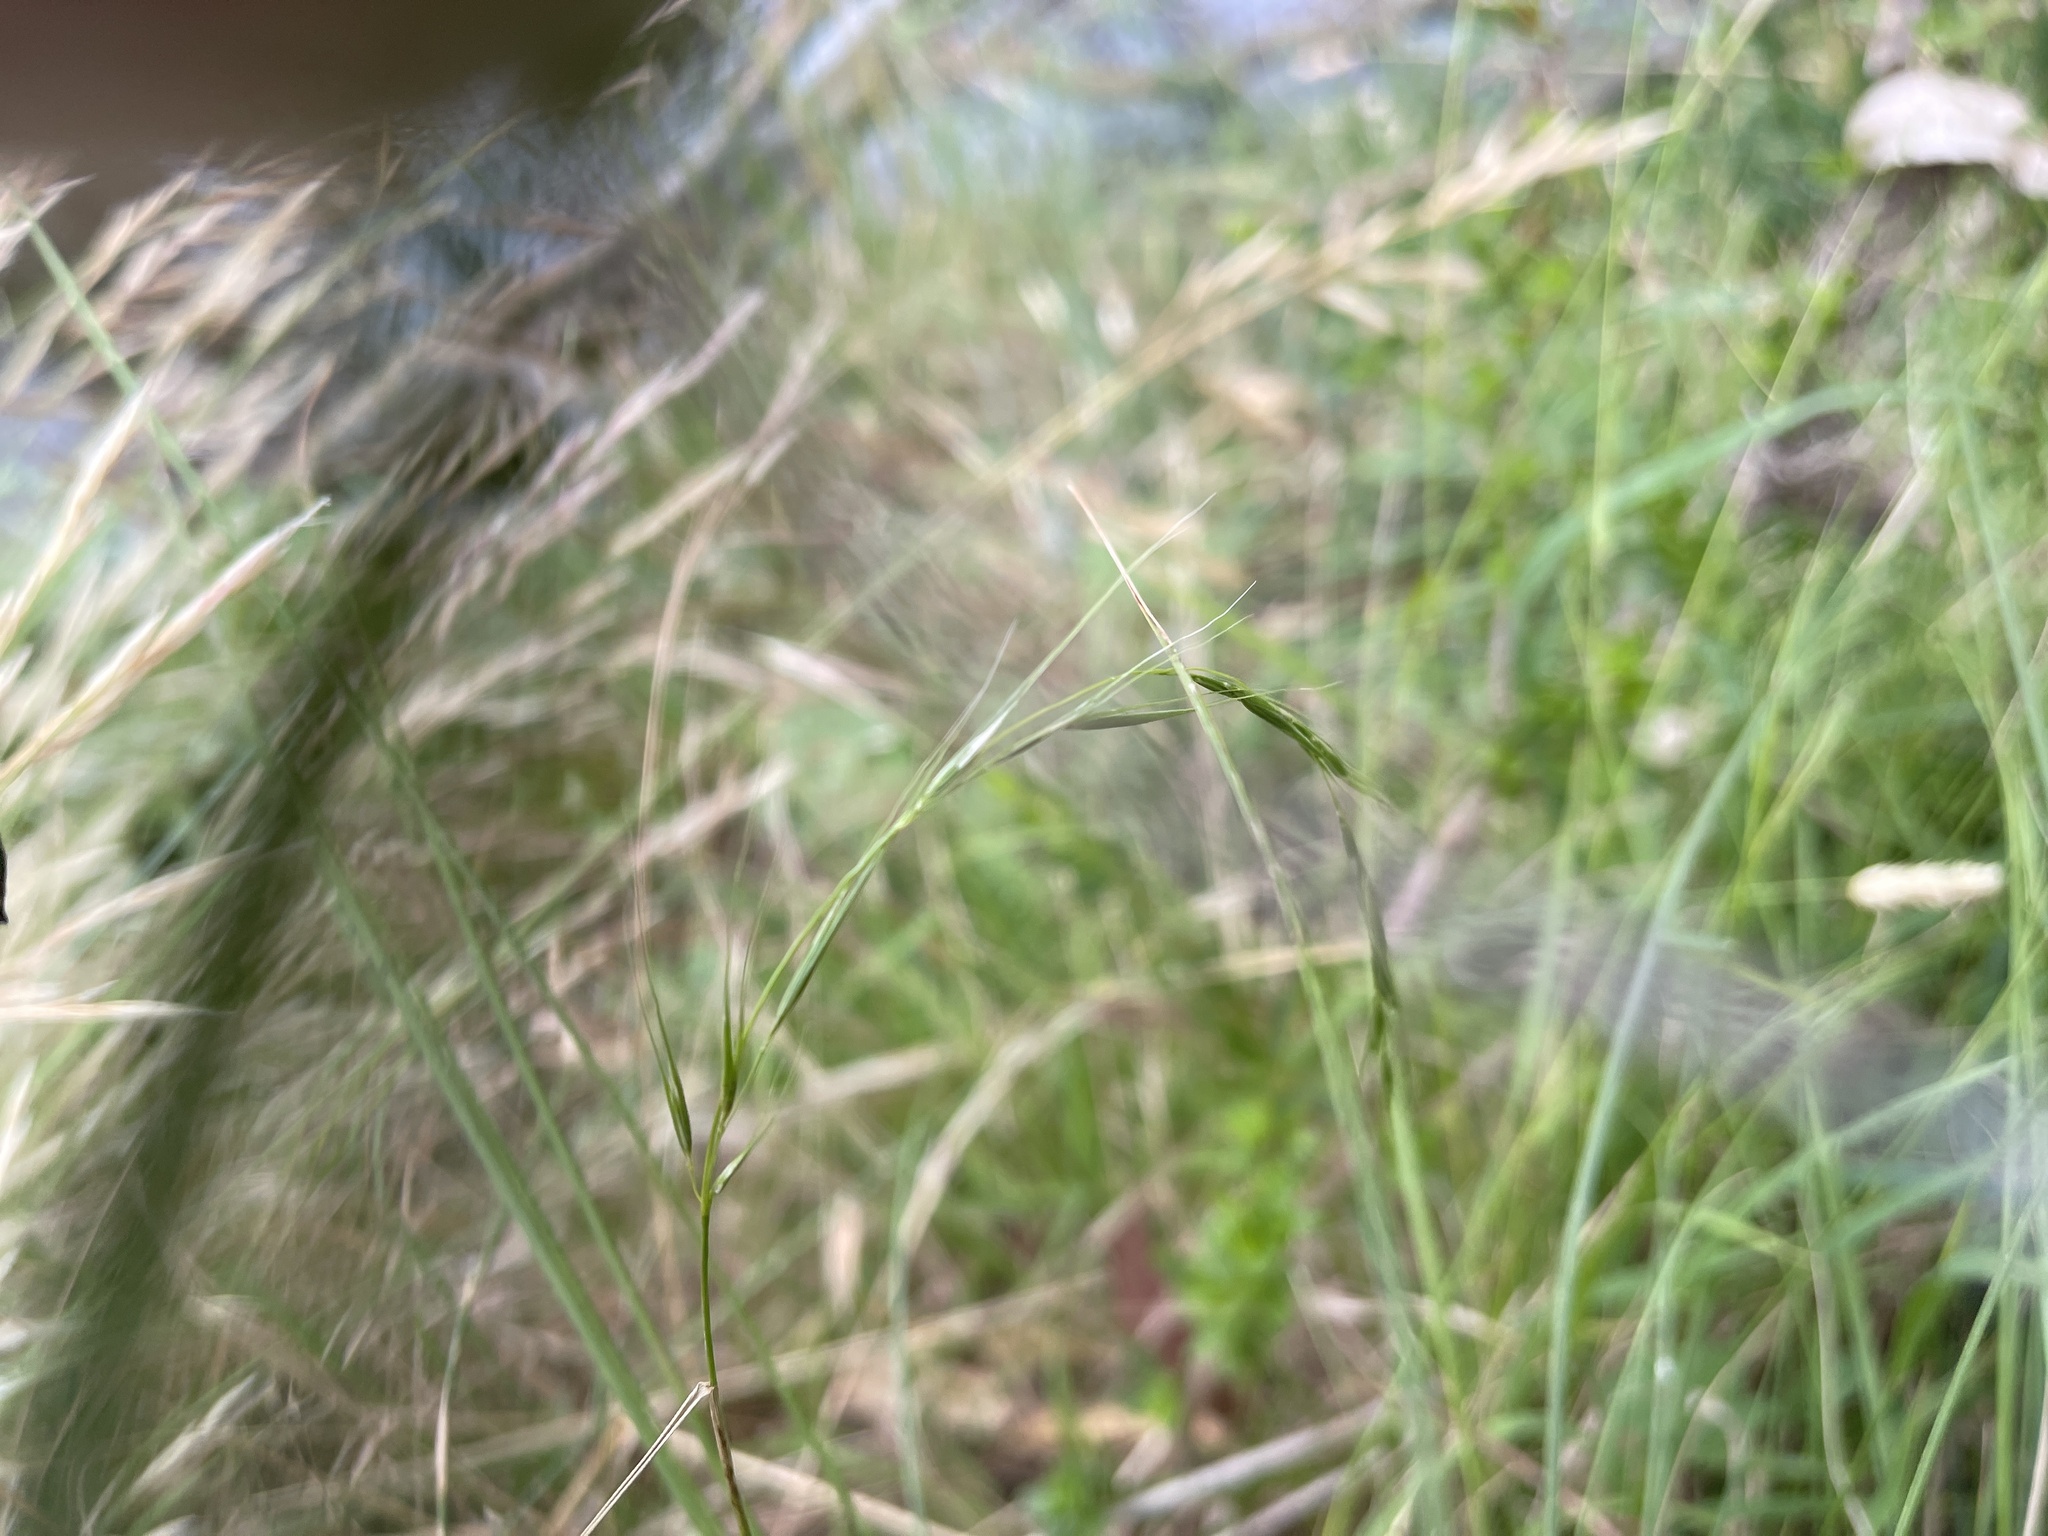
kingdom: Plantae
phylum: Tracheophyta
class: Liliopsida
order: Poales
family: Poaceae
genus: Microlaena
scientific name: Microlaena stipoides
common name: Meadow ricegrass
